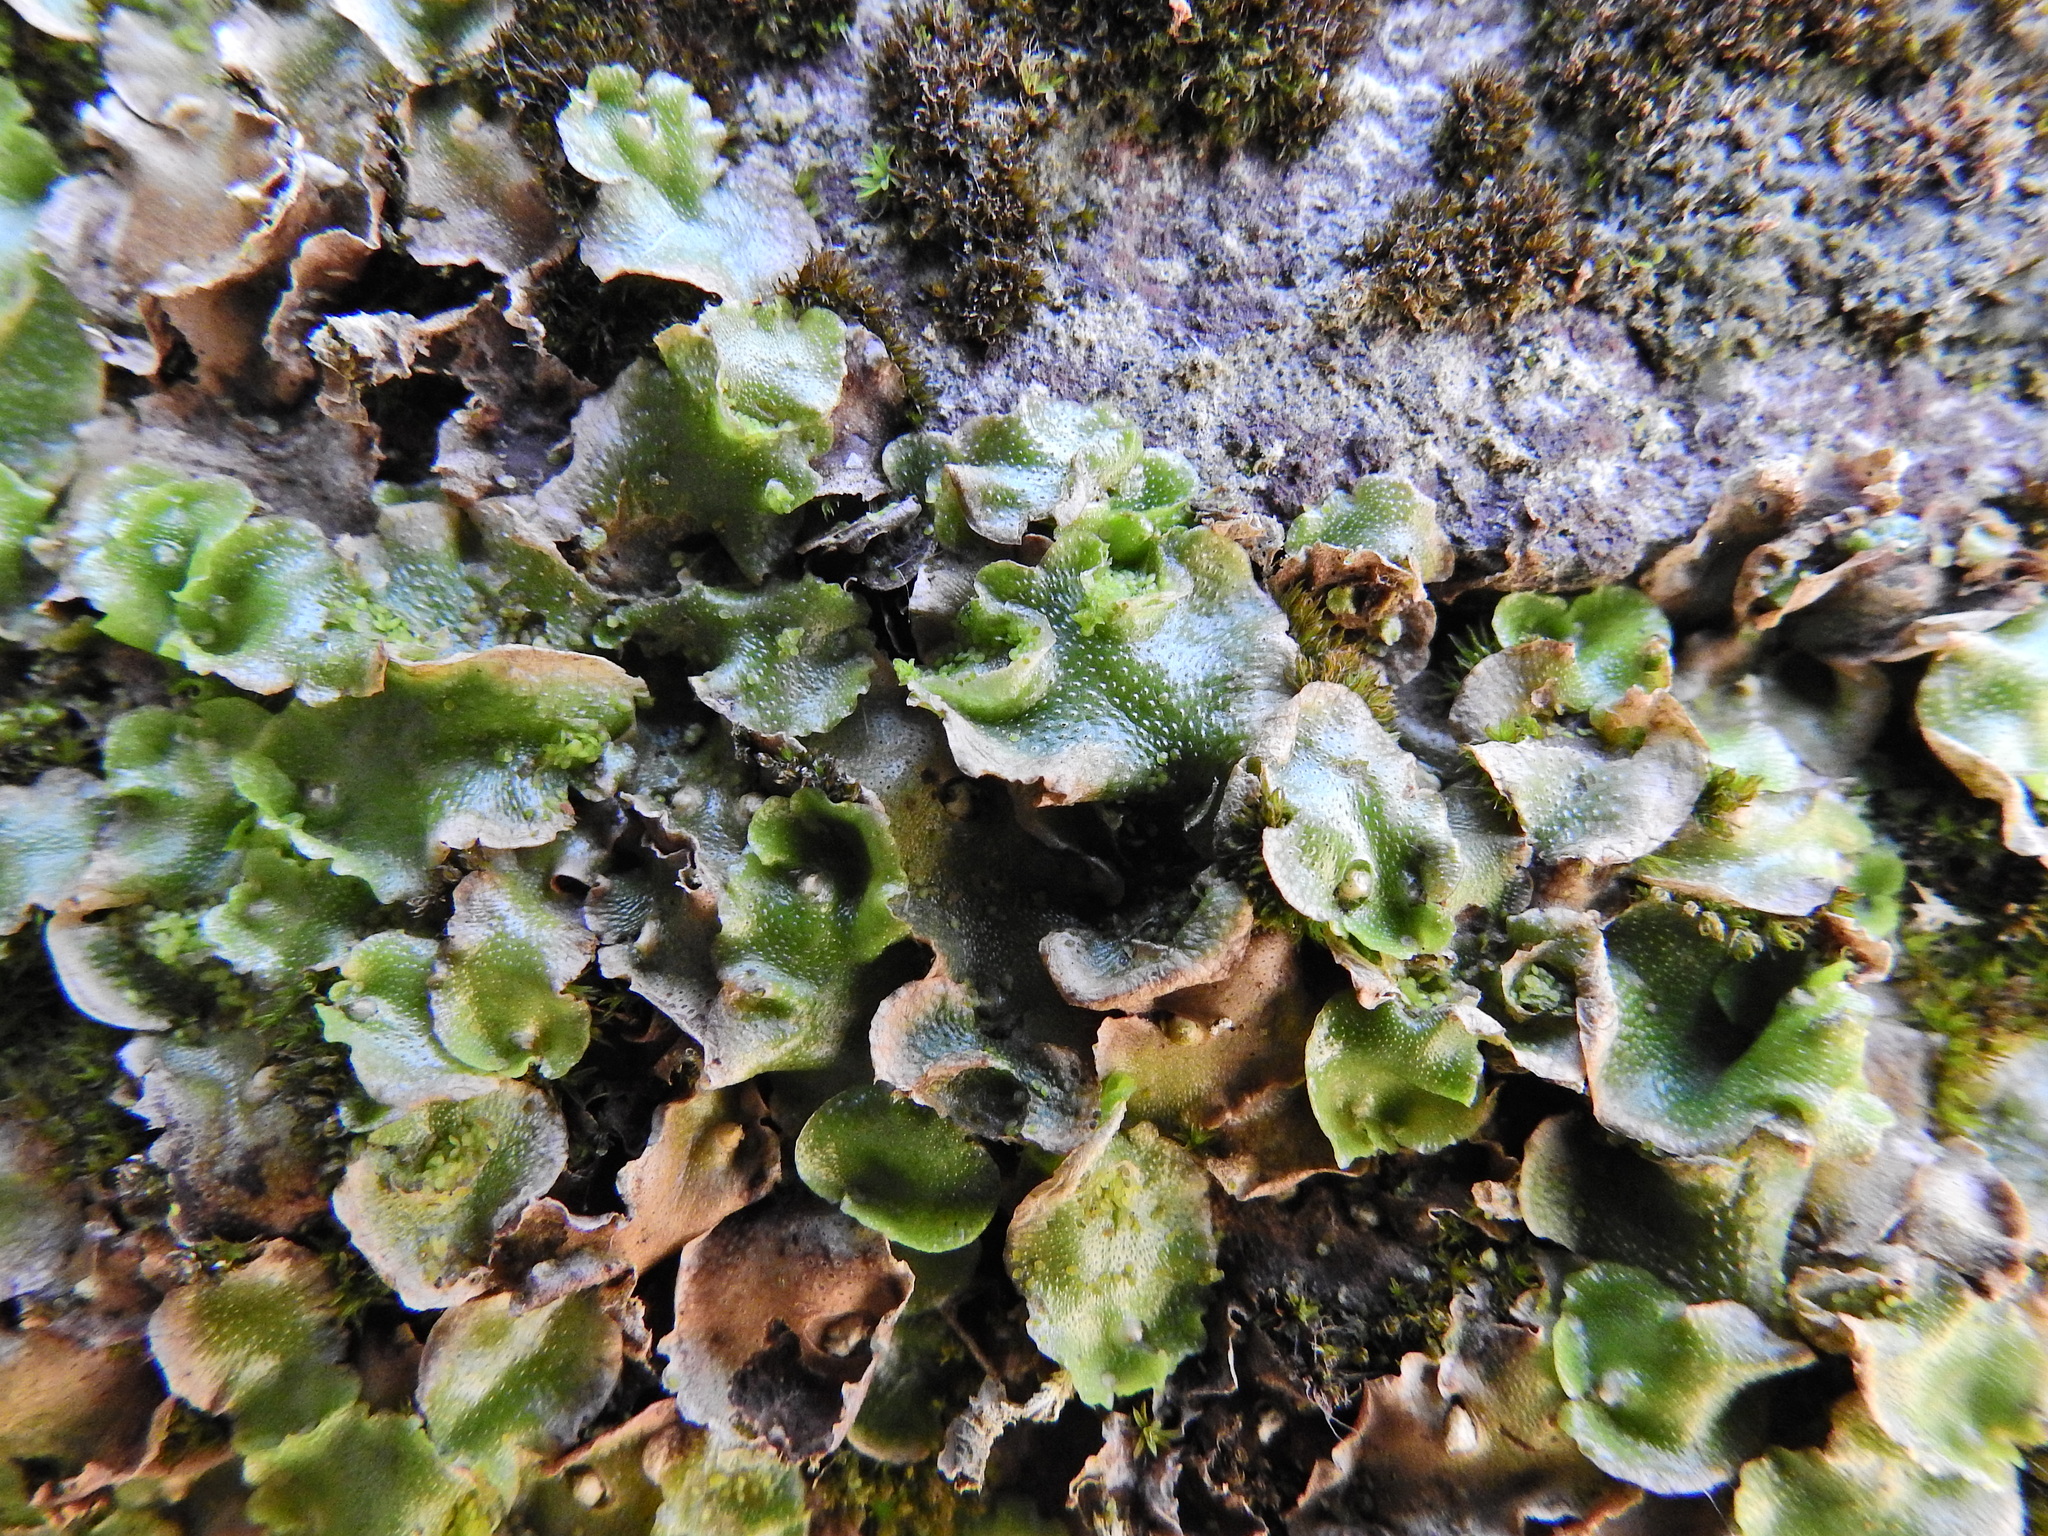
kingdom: Plantae
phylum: Marchantiophyta
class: Marchantiopsida
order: Lunulariales
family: Lunulariaceae
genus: Lunularia
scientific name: Lunularia cruciata
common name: Crescent-cup liverwort
